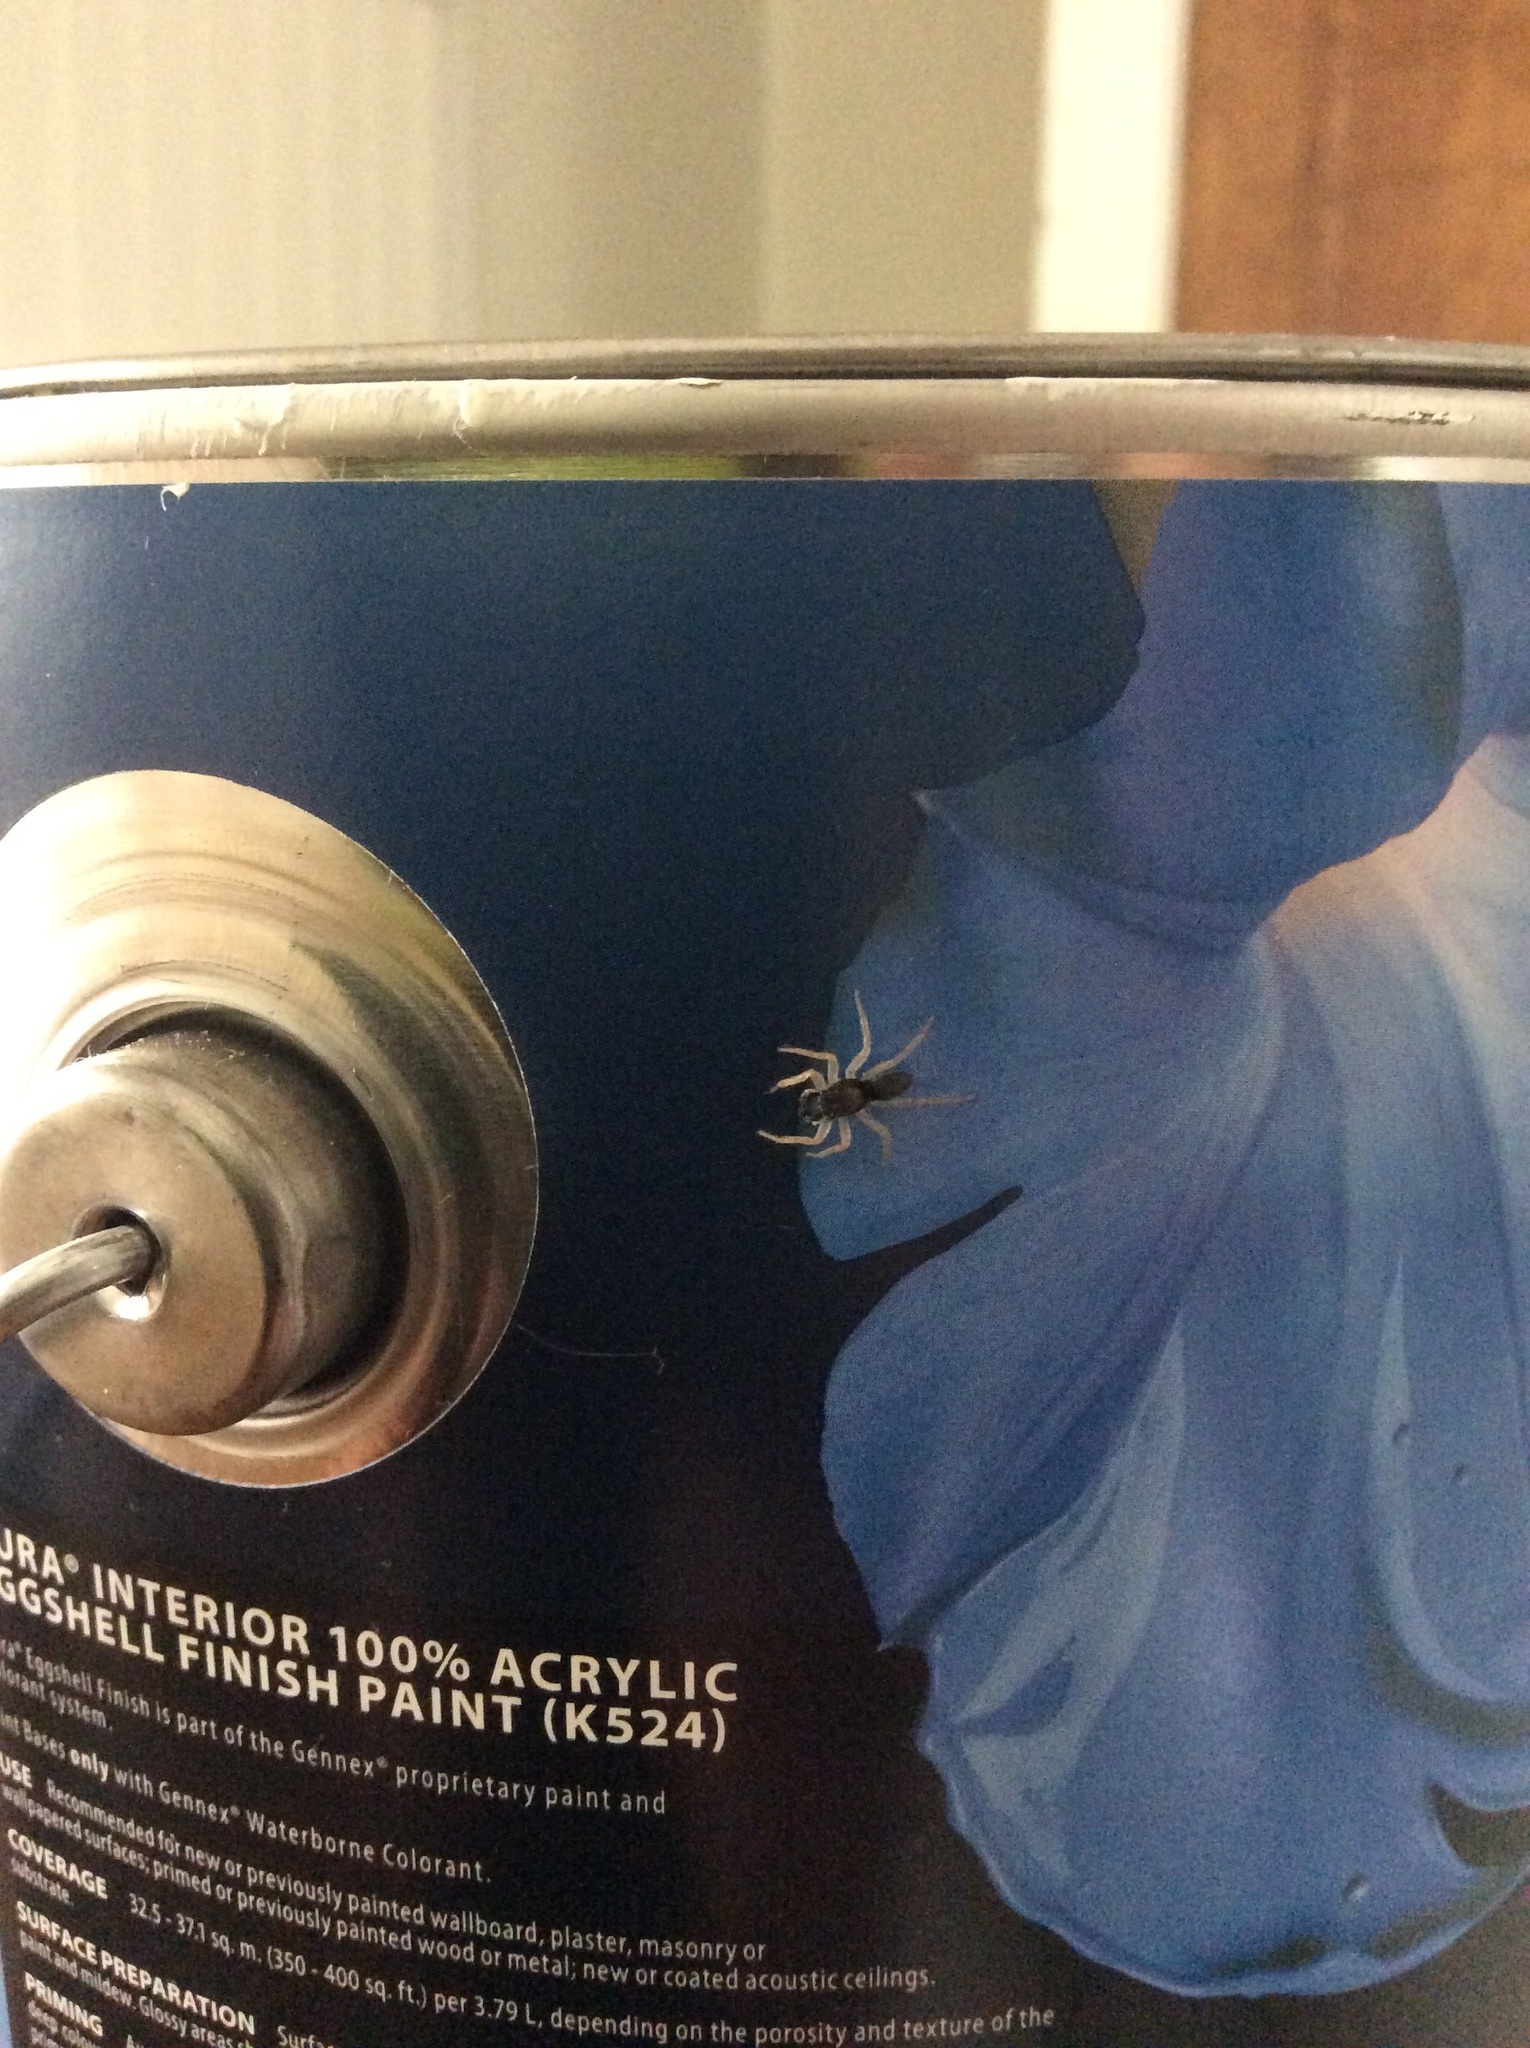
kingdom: Animalia
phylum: Arthropoda
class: Arachnida
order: Araneae
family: Salticidae
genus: Maevia
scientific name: Maevia inclemens
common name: Dimorphic jumper
